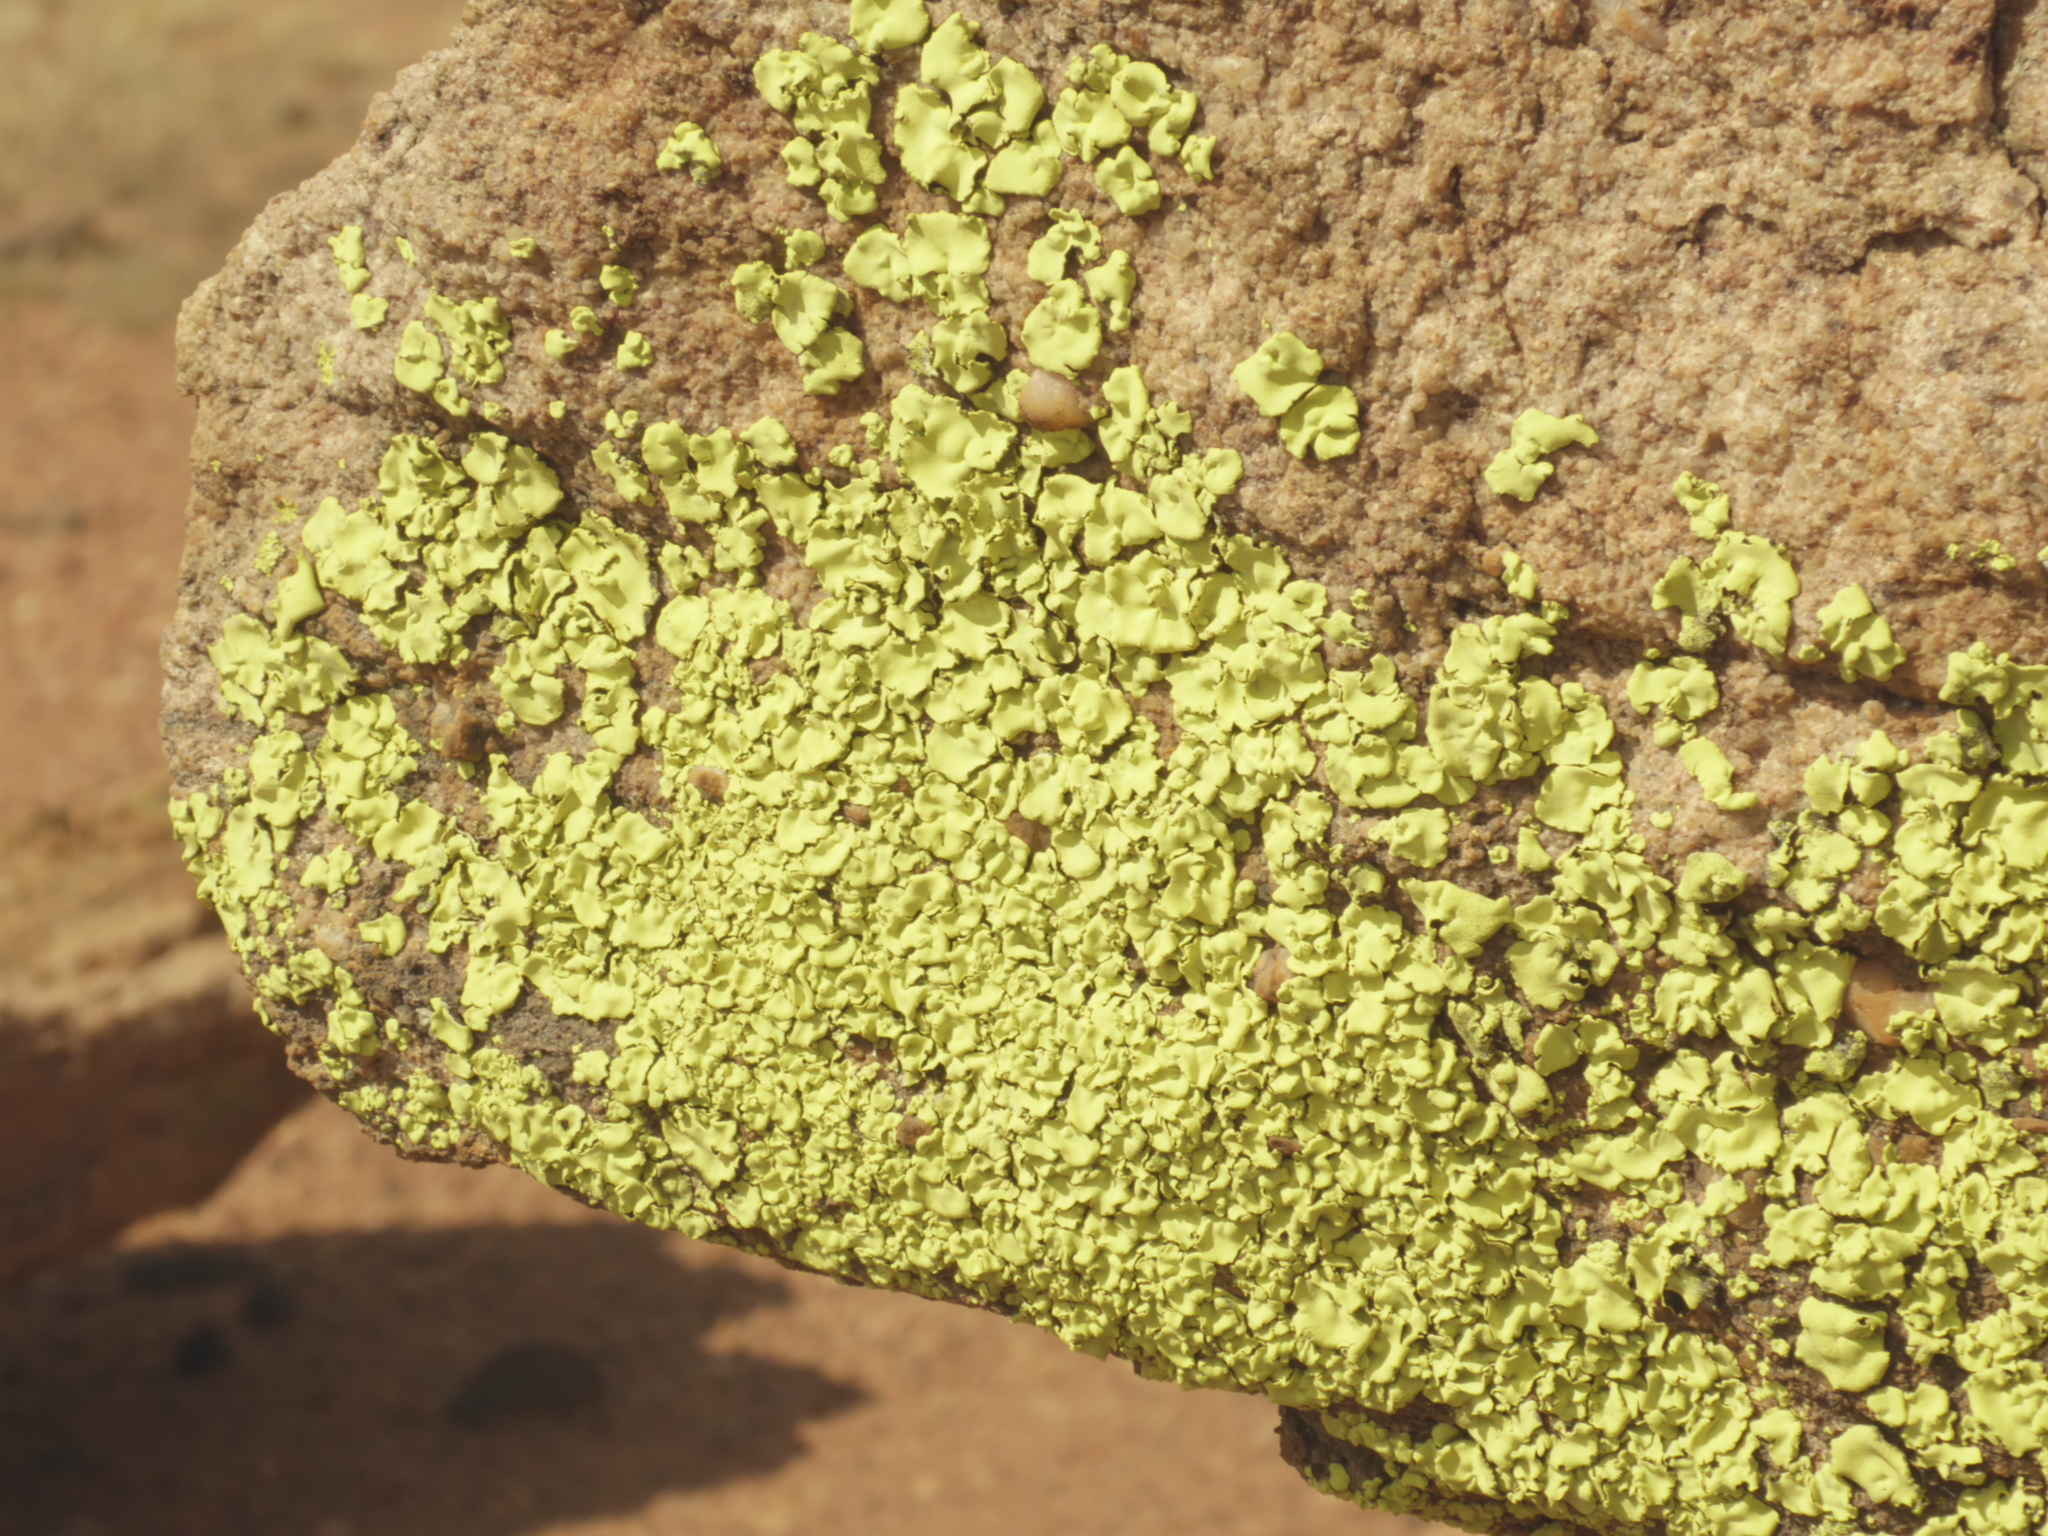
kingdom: Fungi
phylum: Ascomycota
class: Lecanoromycetes
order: Caliciales
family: Caliciaceae
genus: Dermatiscum
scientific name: Dermatiscum thunbergii
